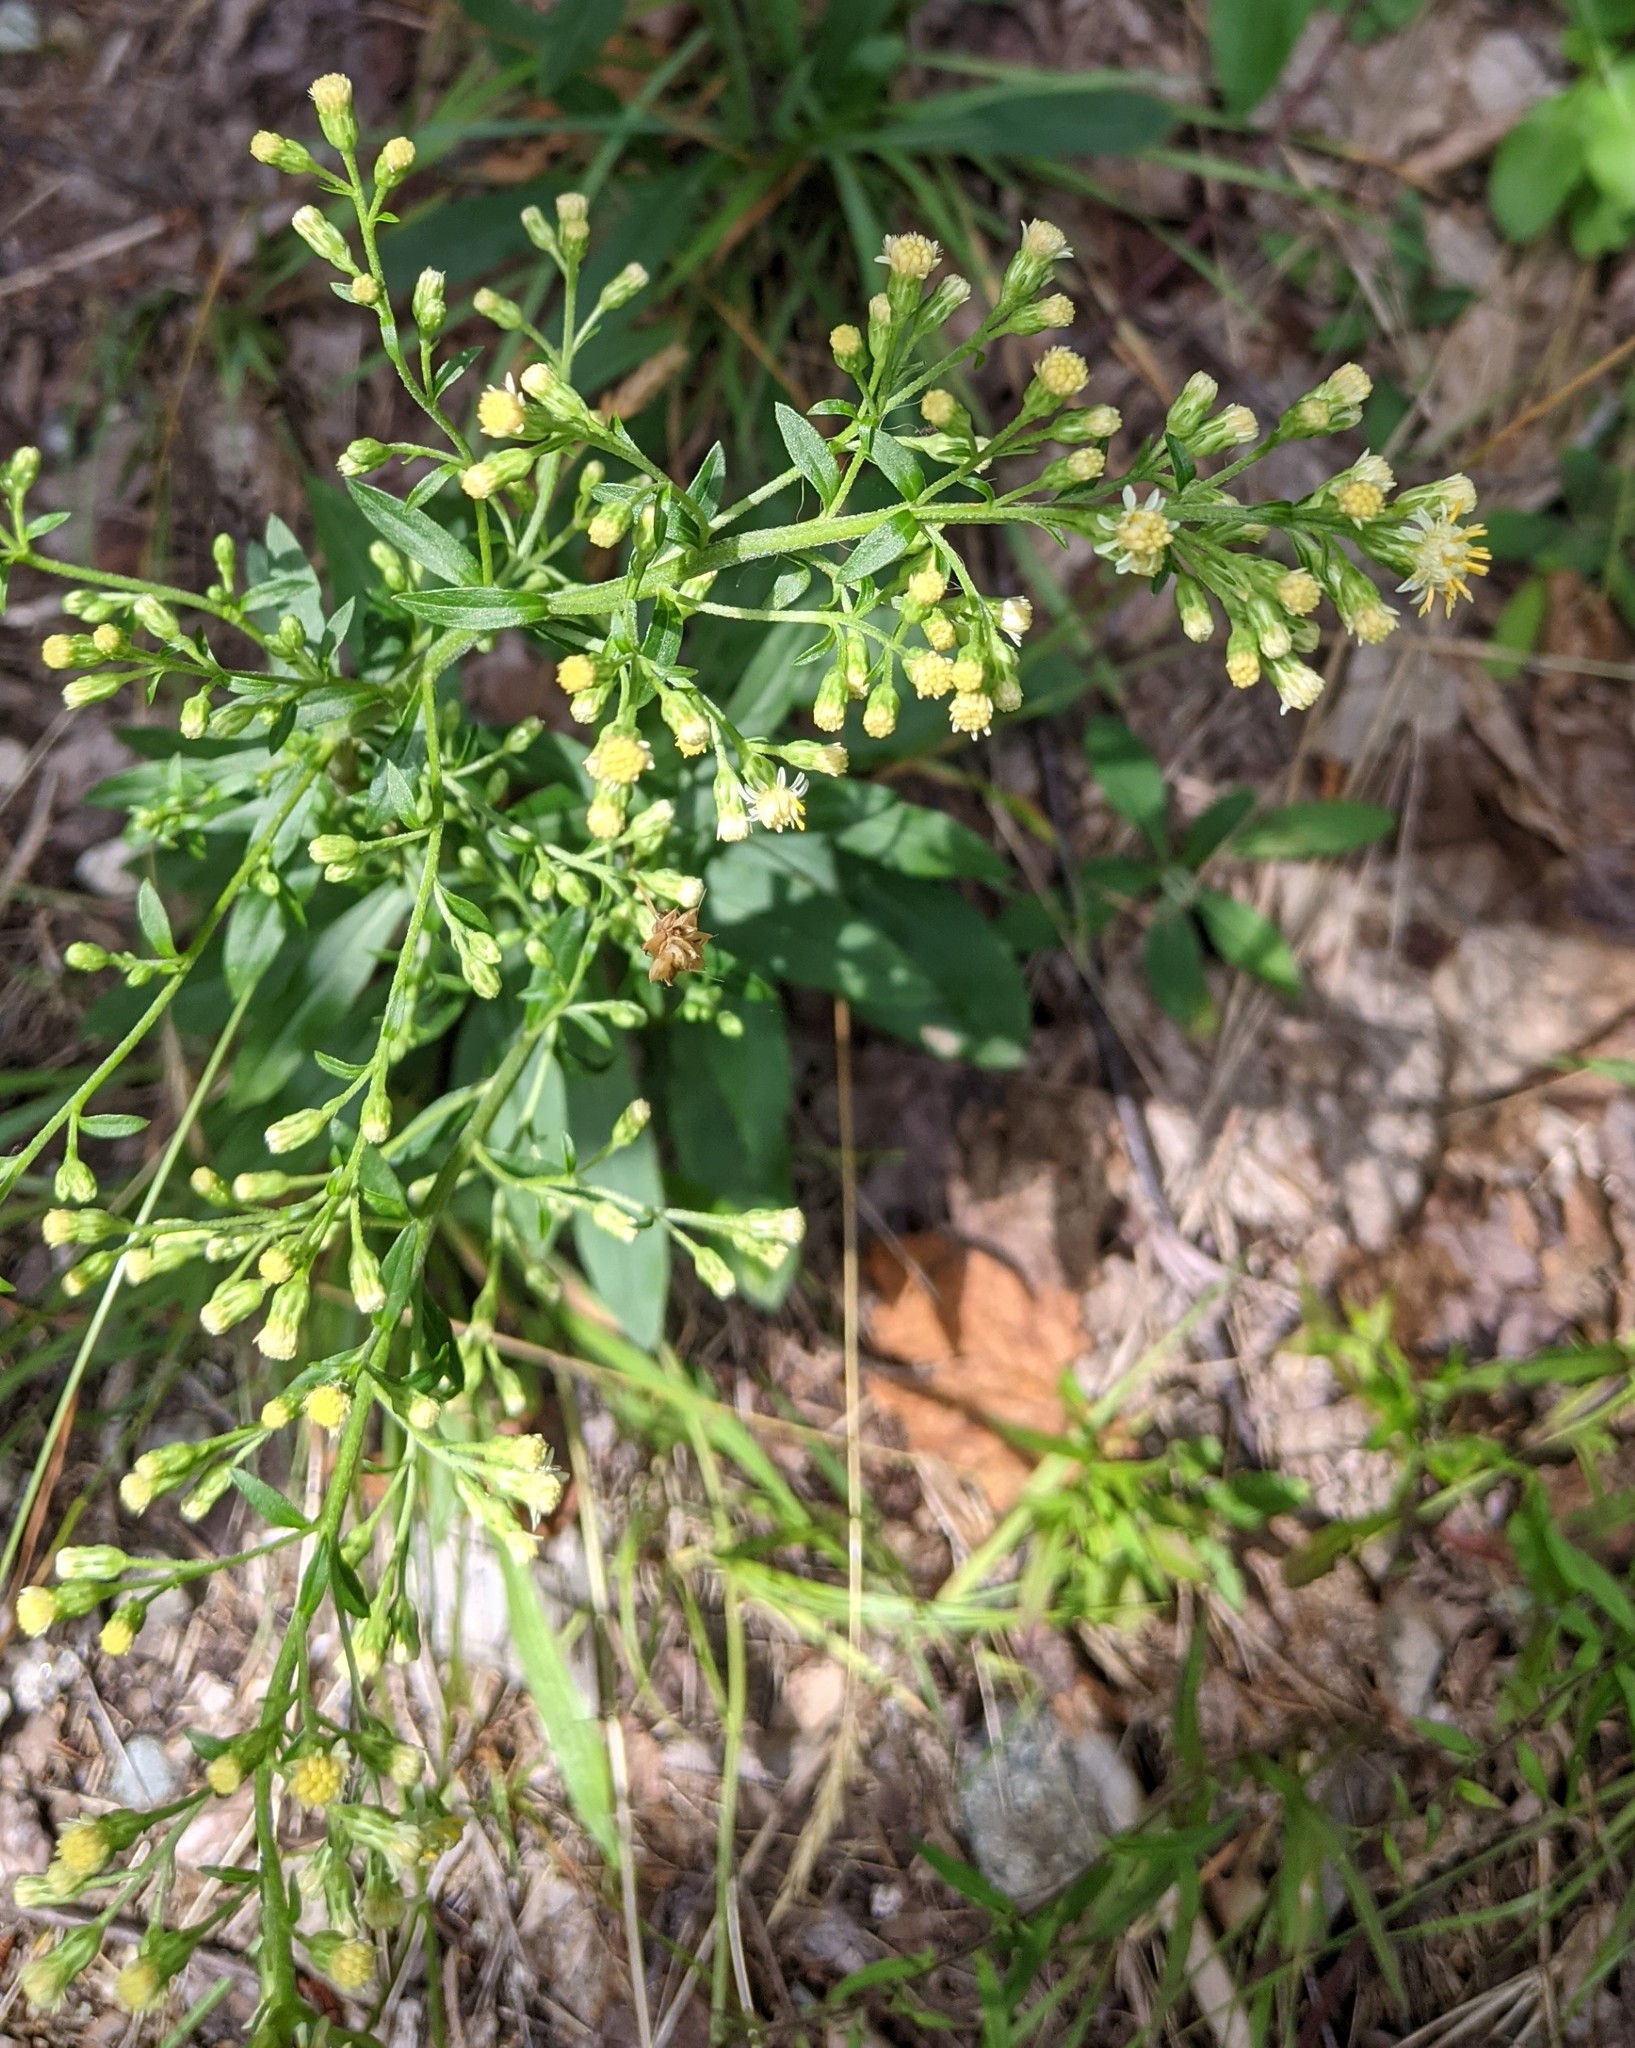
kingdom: Plantae
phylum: Tracheophyta
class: Magnoliopsida
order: Asterales
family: Asteraceae
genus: Solidago
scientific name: Solidago bicolor
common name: Silverrod
